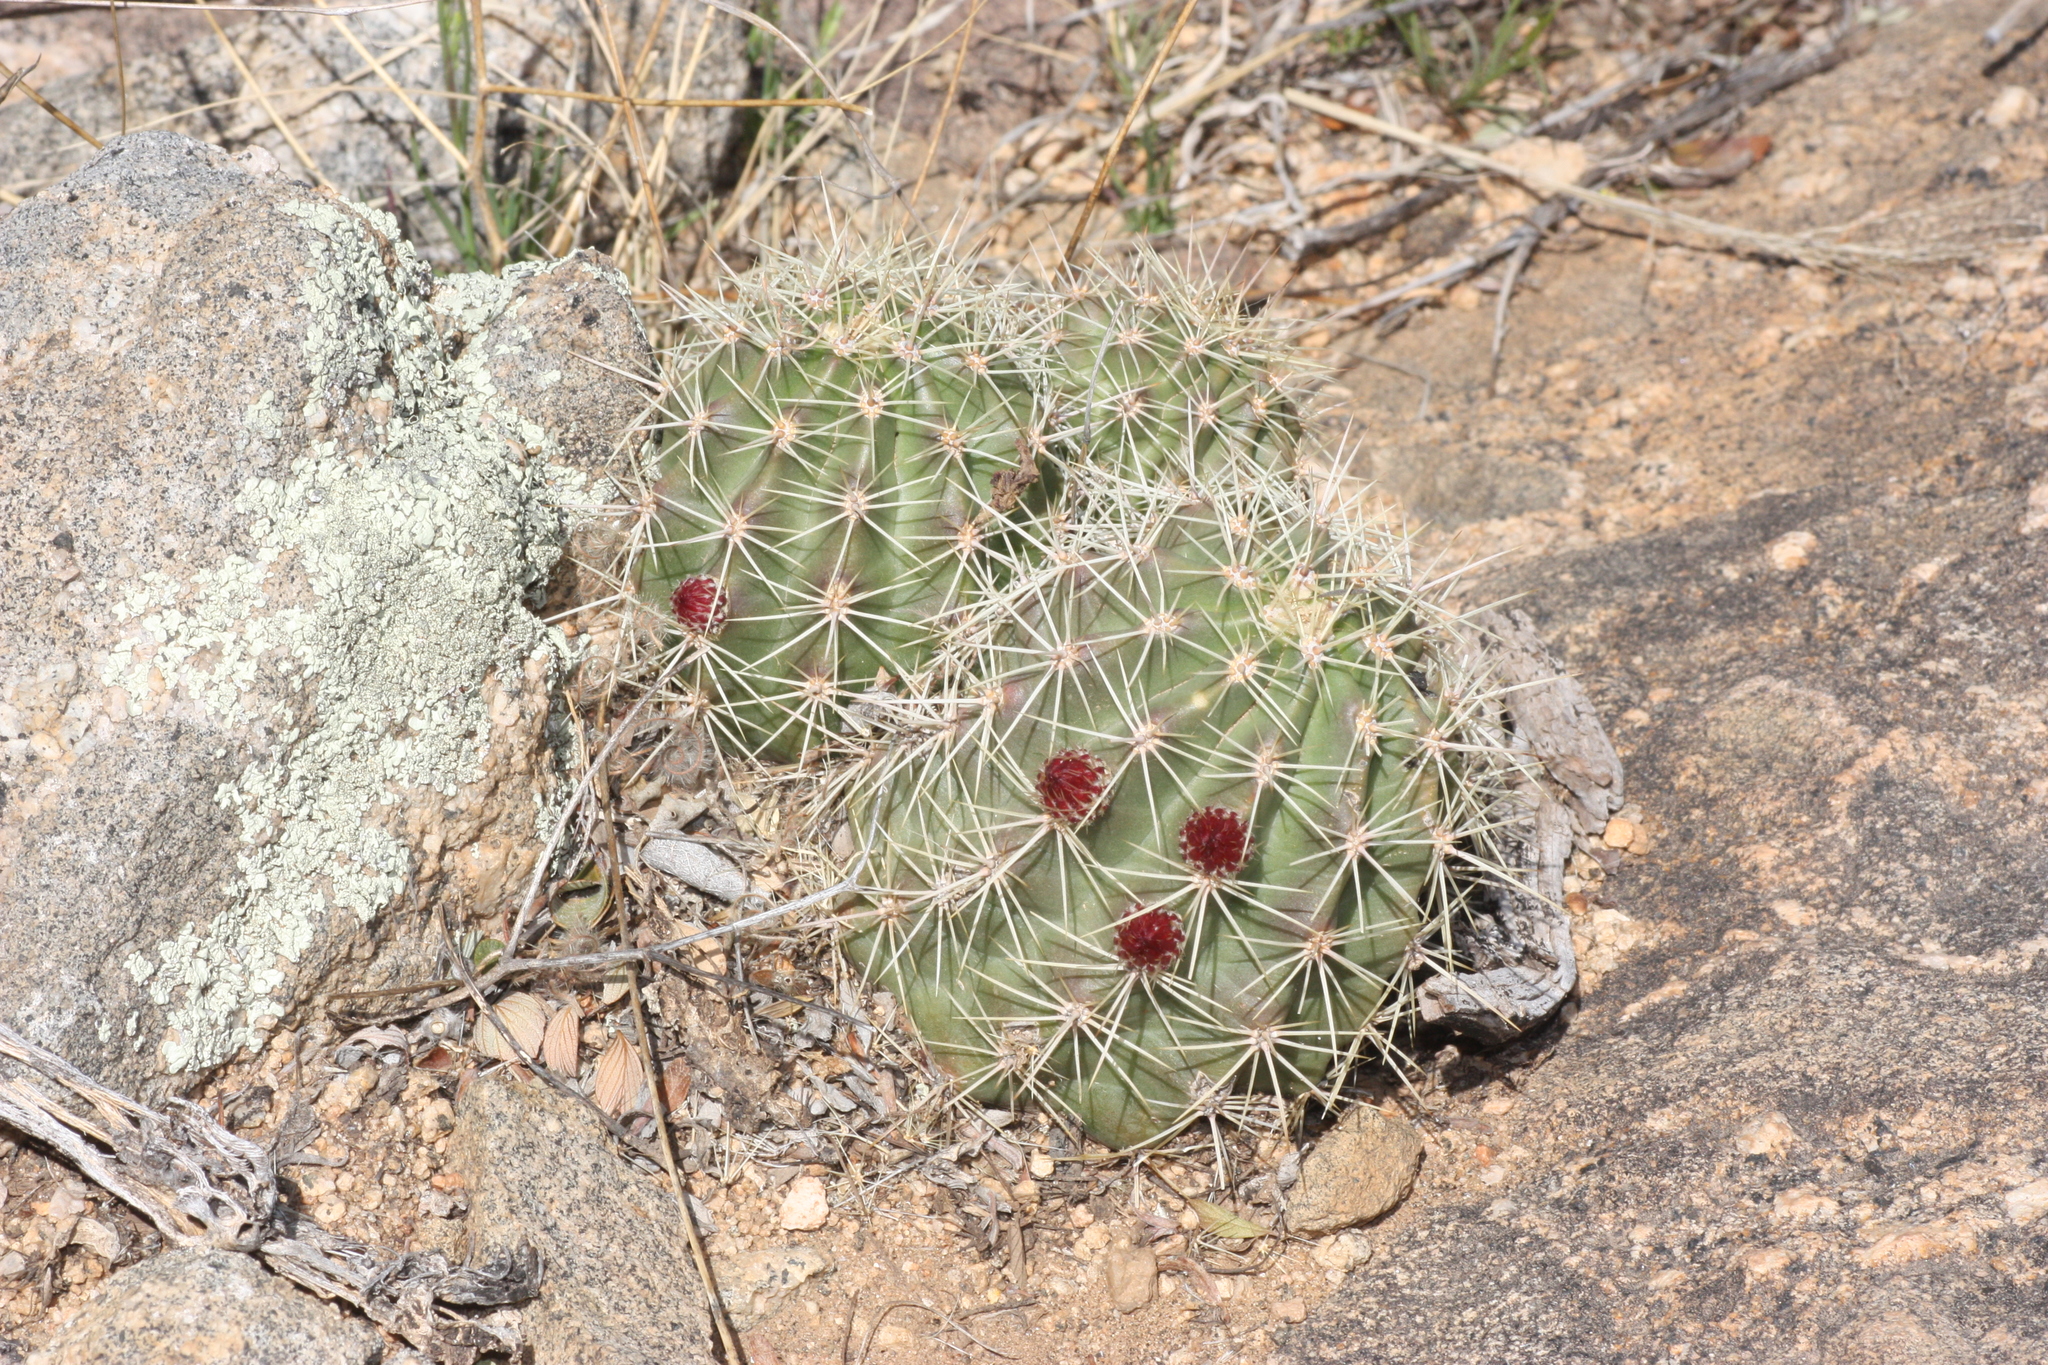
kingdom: Plantae
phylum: Tracheophyta
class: Magnoliopsida
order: Caryophyllales
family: Cactaceae
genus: Echinocereus
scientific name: Echinocereus coccineus
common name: Scarlet hedgehog cactus
